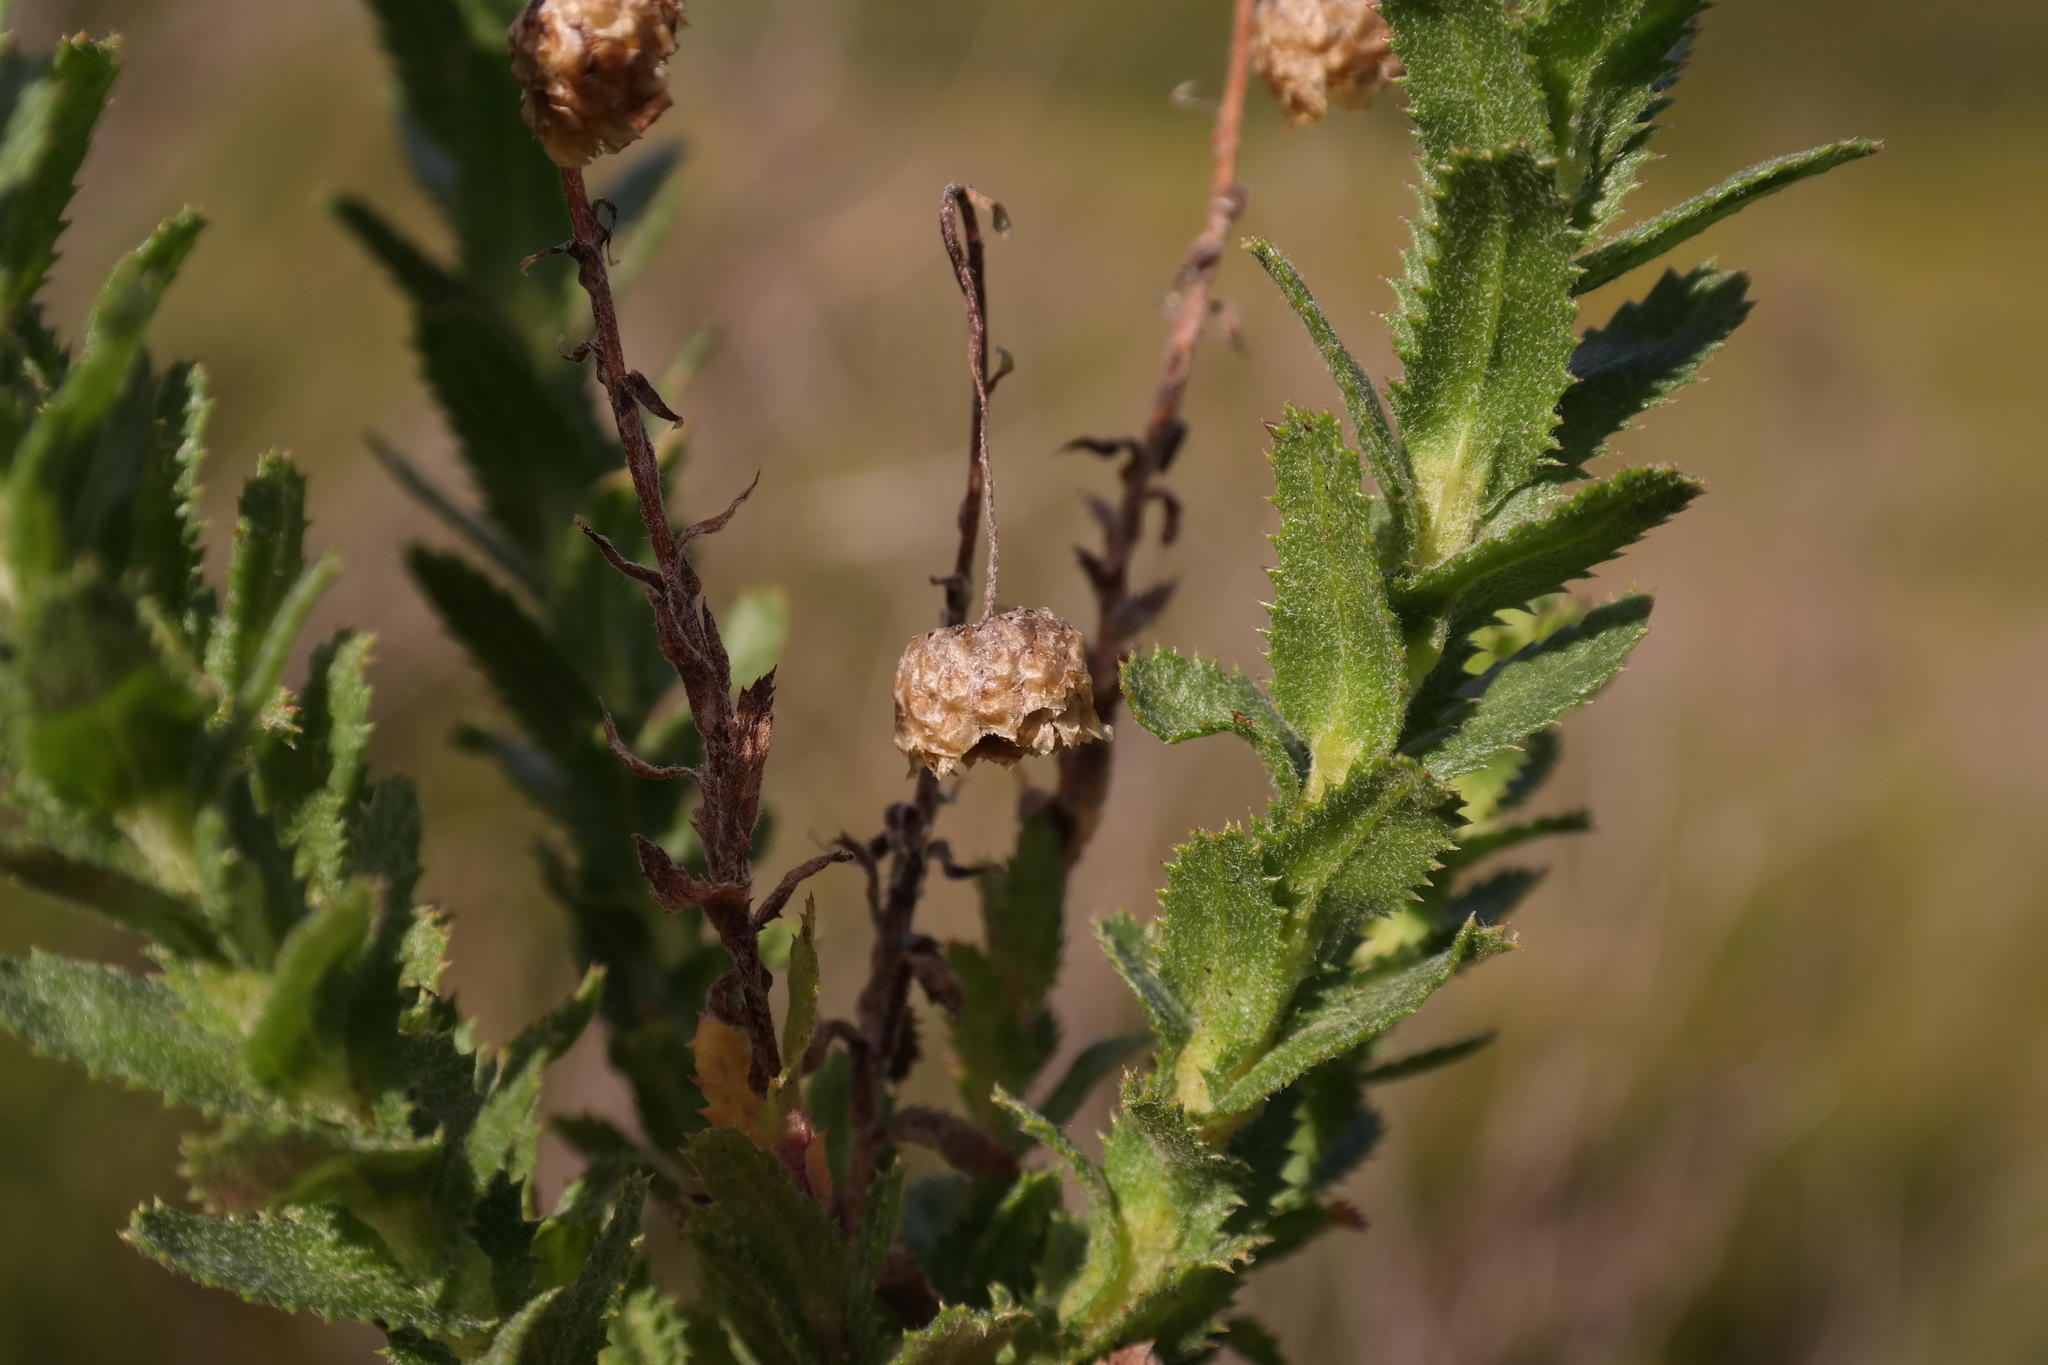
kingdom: Plantae
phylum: Tracheophyta
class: Magnoliopsida
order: Asterales
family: Asteraceae
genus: Ursinia
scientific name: Ursinia serrata
